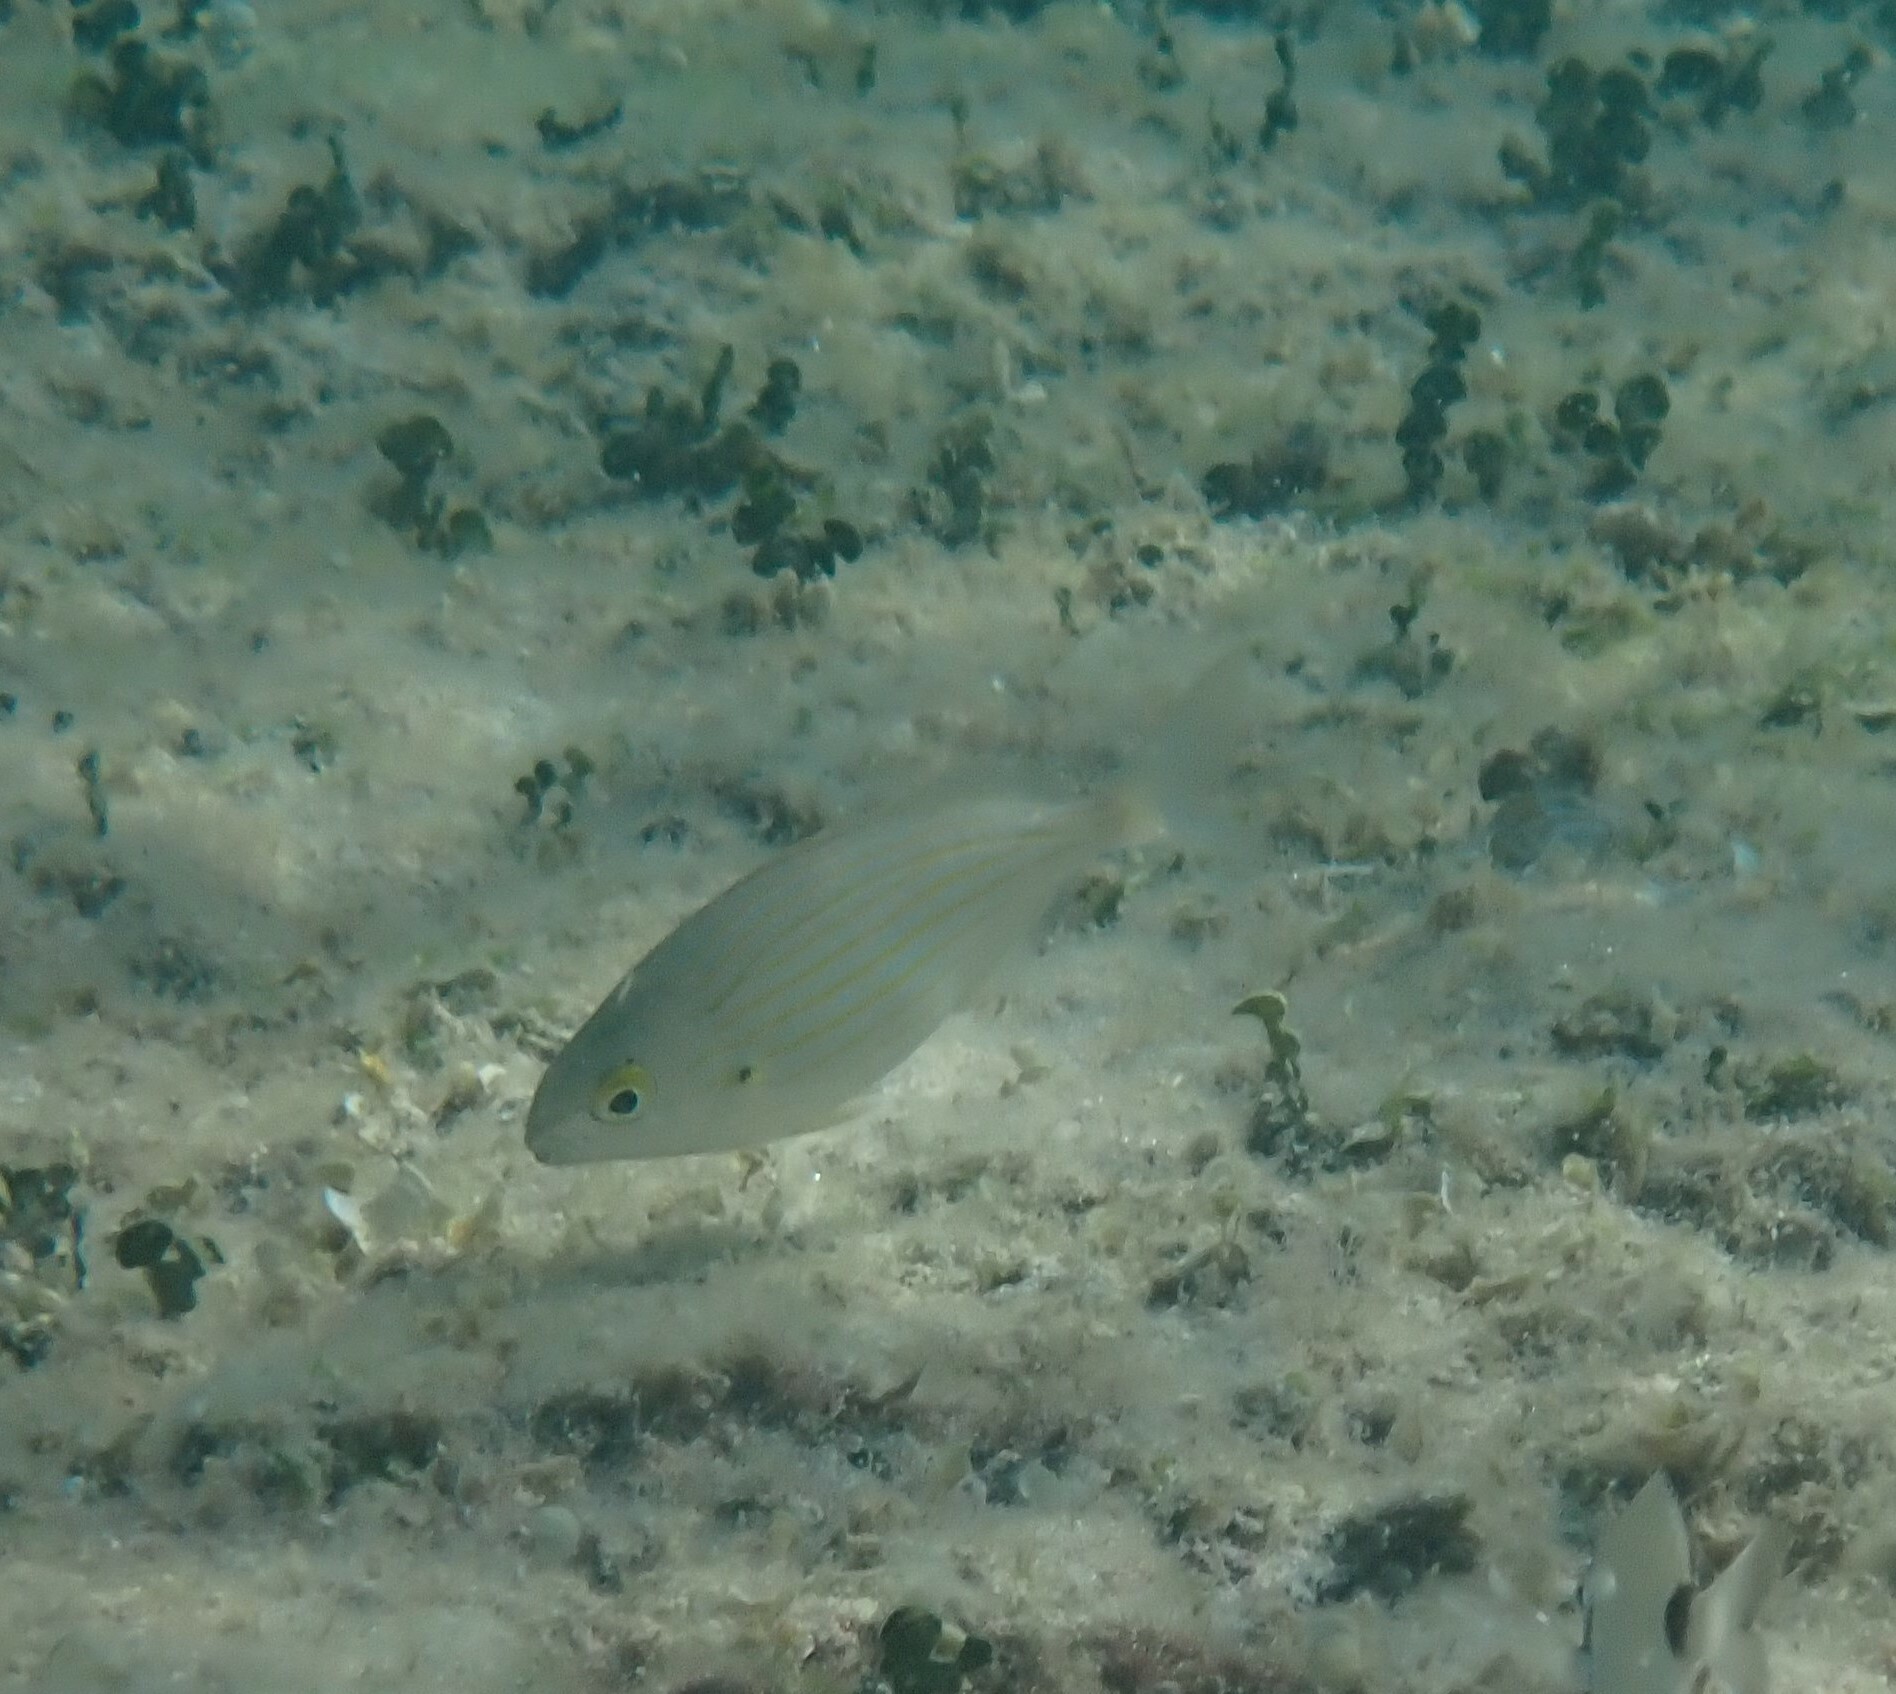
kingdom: Animalia
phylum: Chordata
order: Perciformes
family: Sparidae
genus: Sarpa
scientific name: Sarpa salpa
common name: Salema
